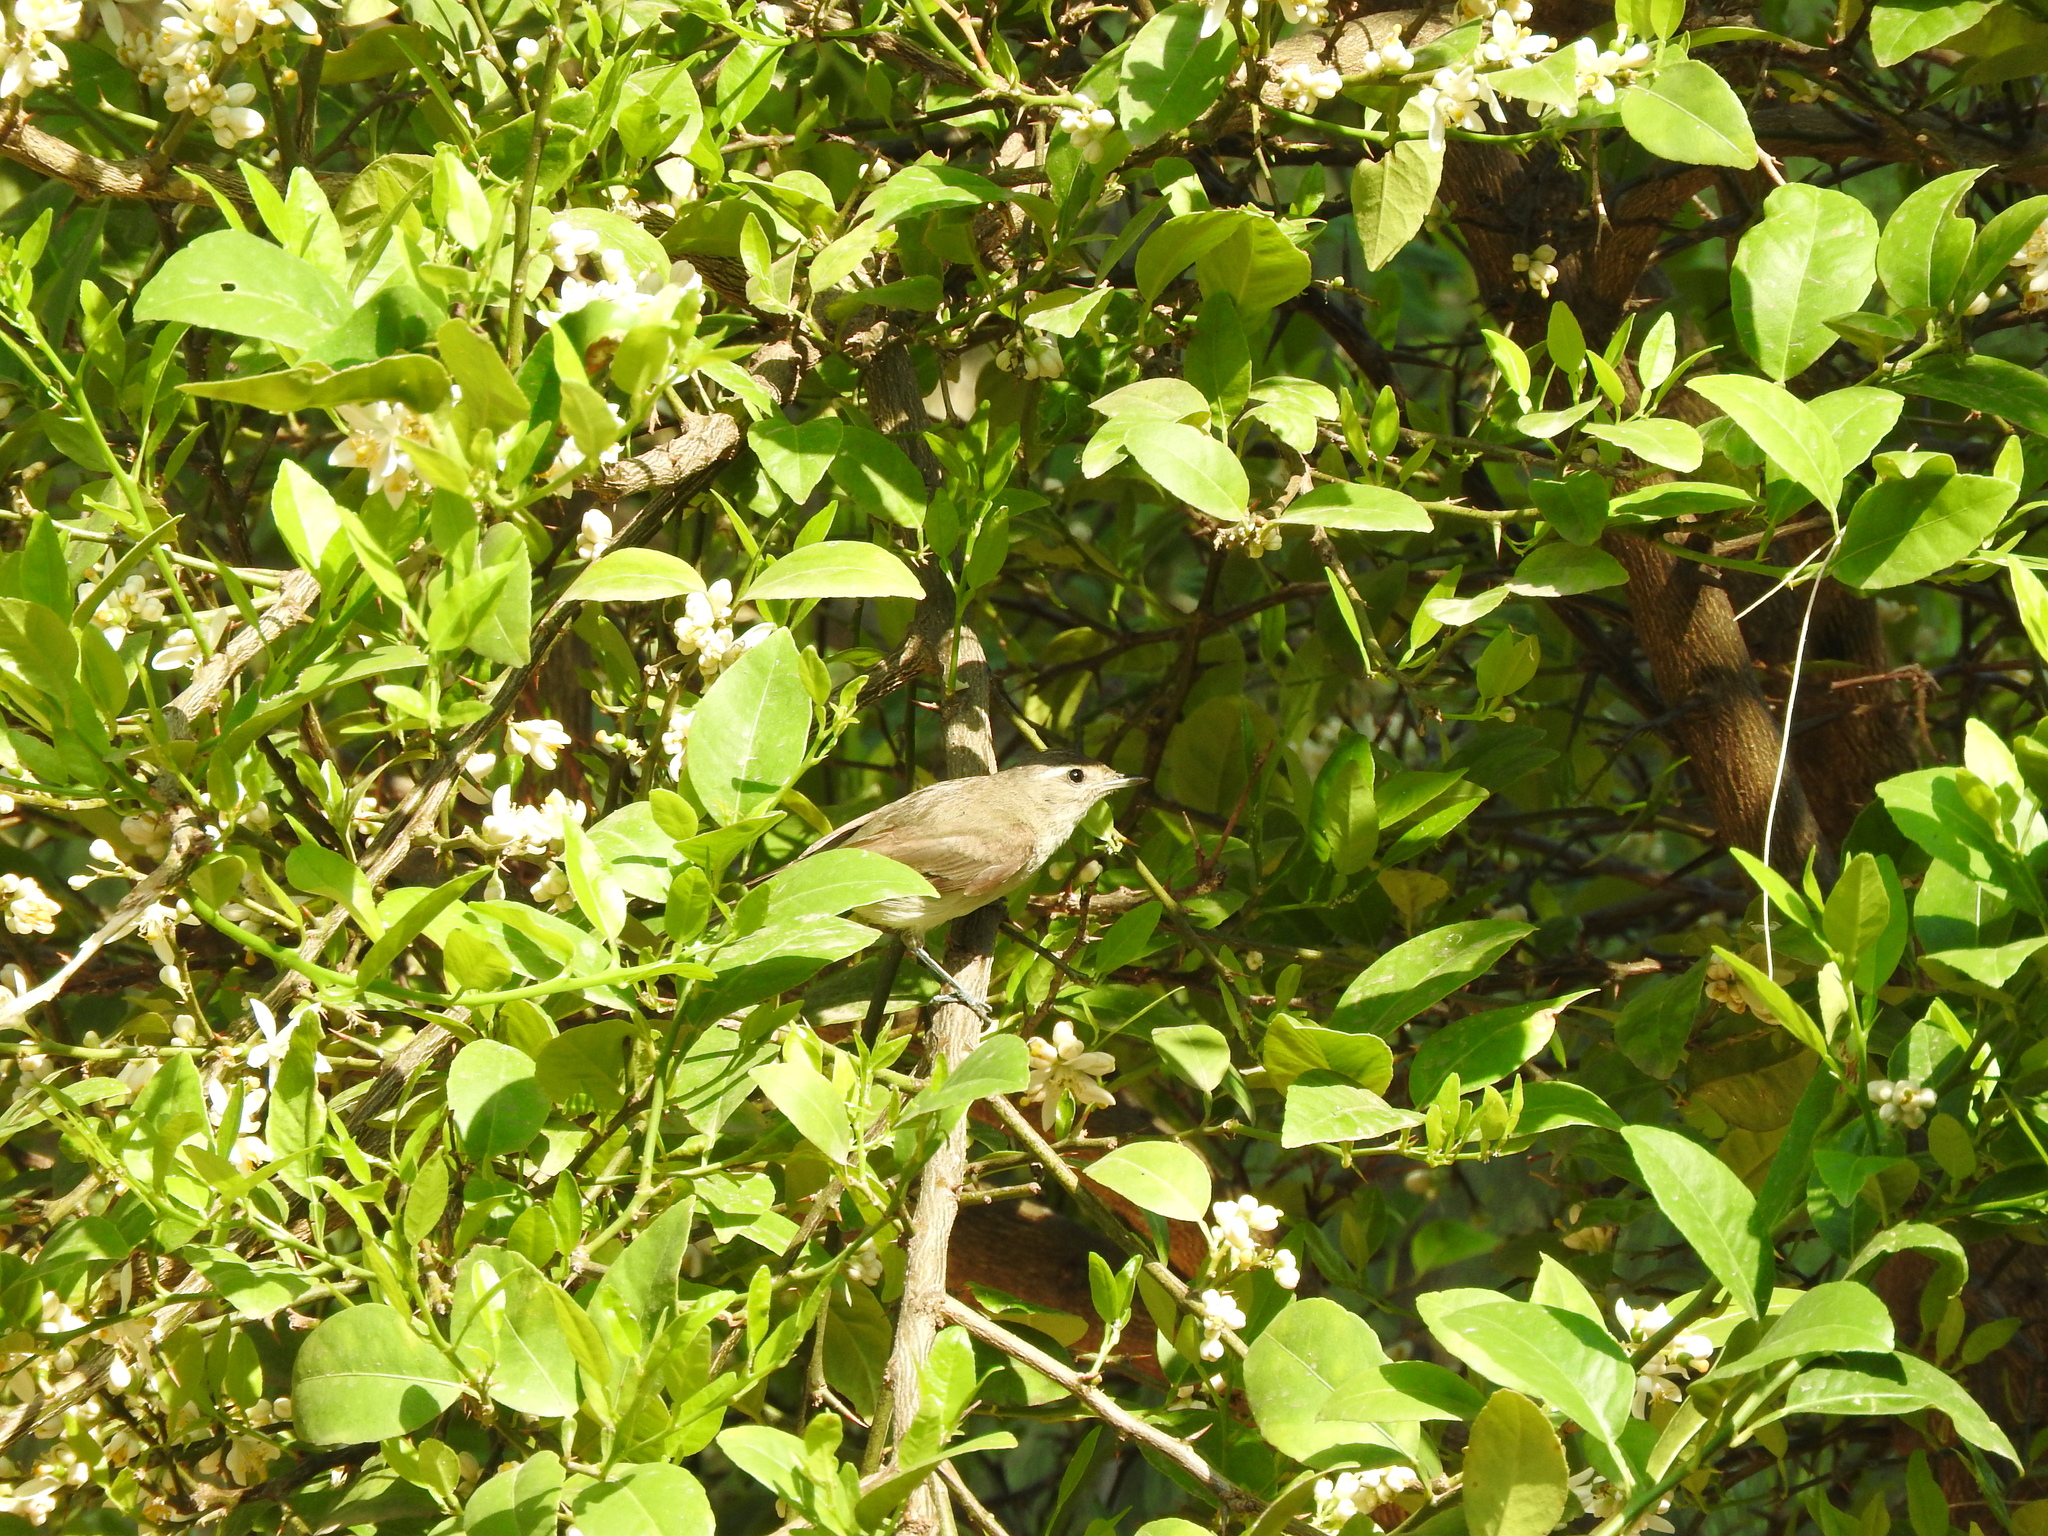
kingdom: Animalia
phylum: Chordata
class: Aves
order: Passeriformes
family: Vireonidae
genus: Vireo
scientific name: Vireo gilvus
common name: Warbling vireo
